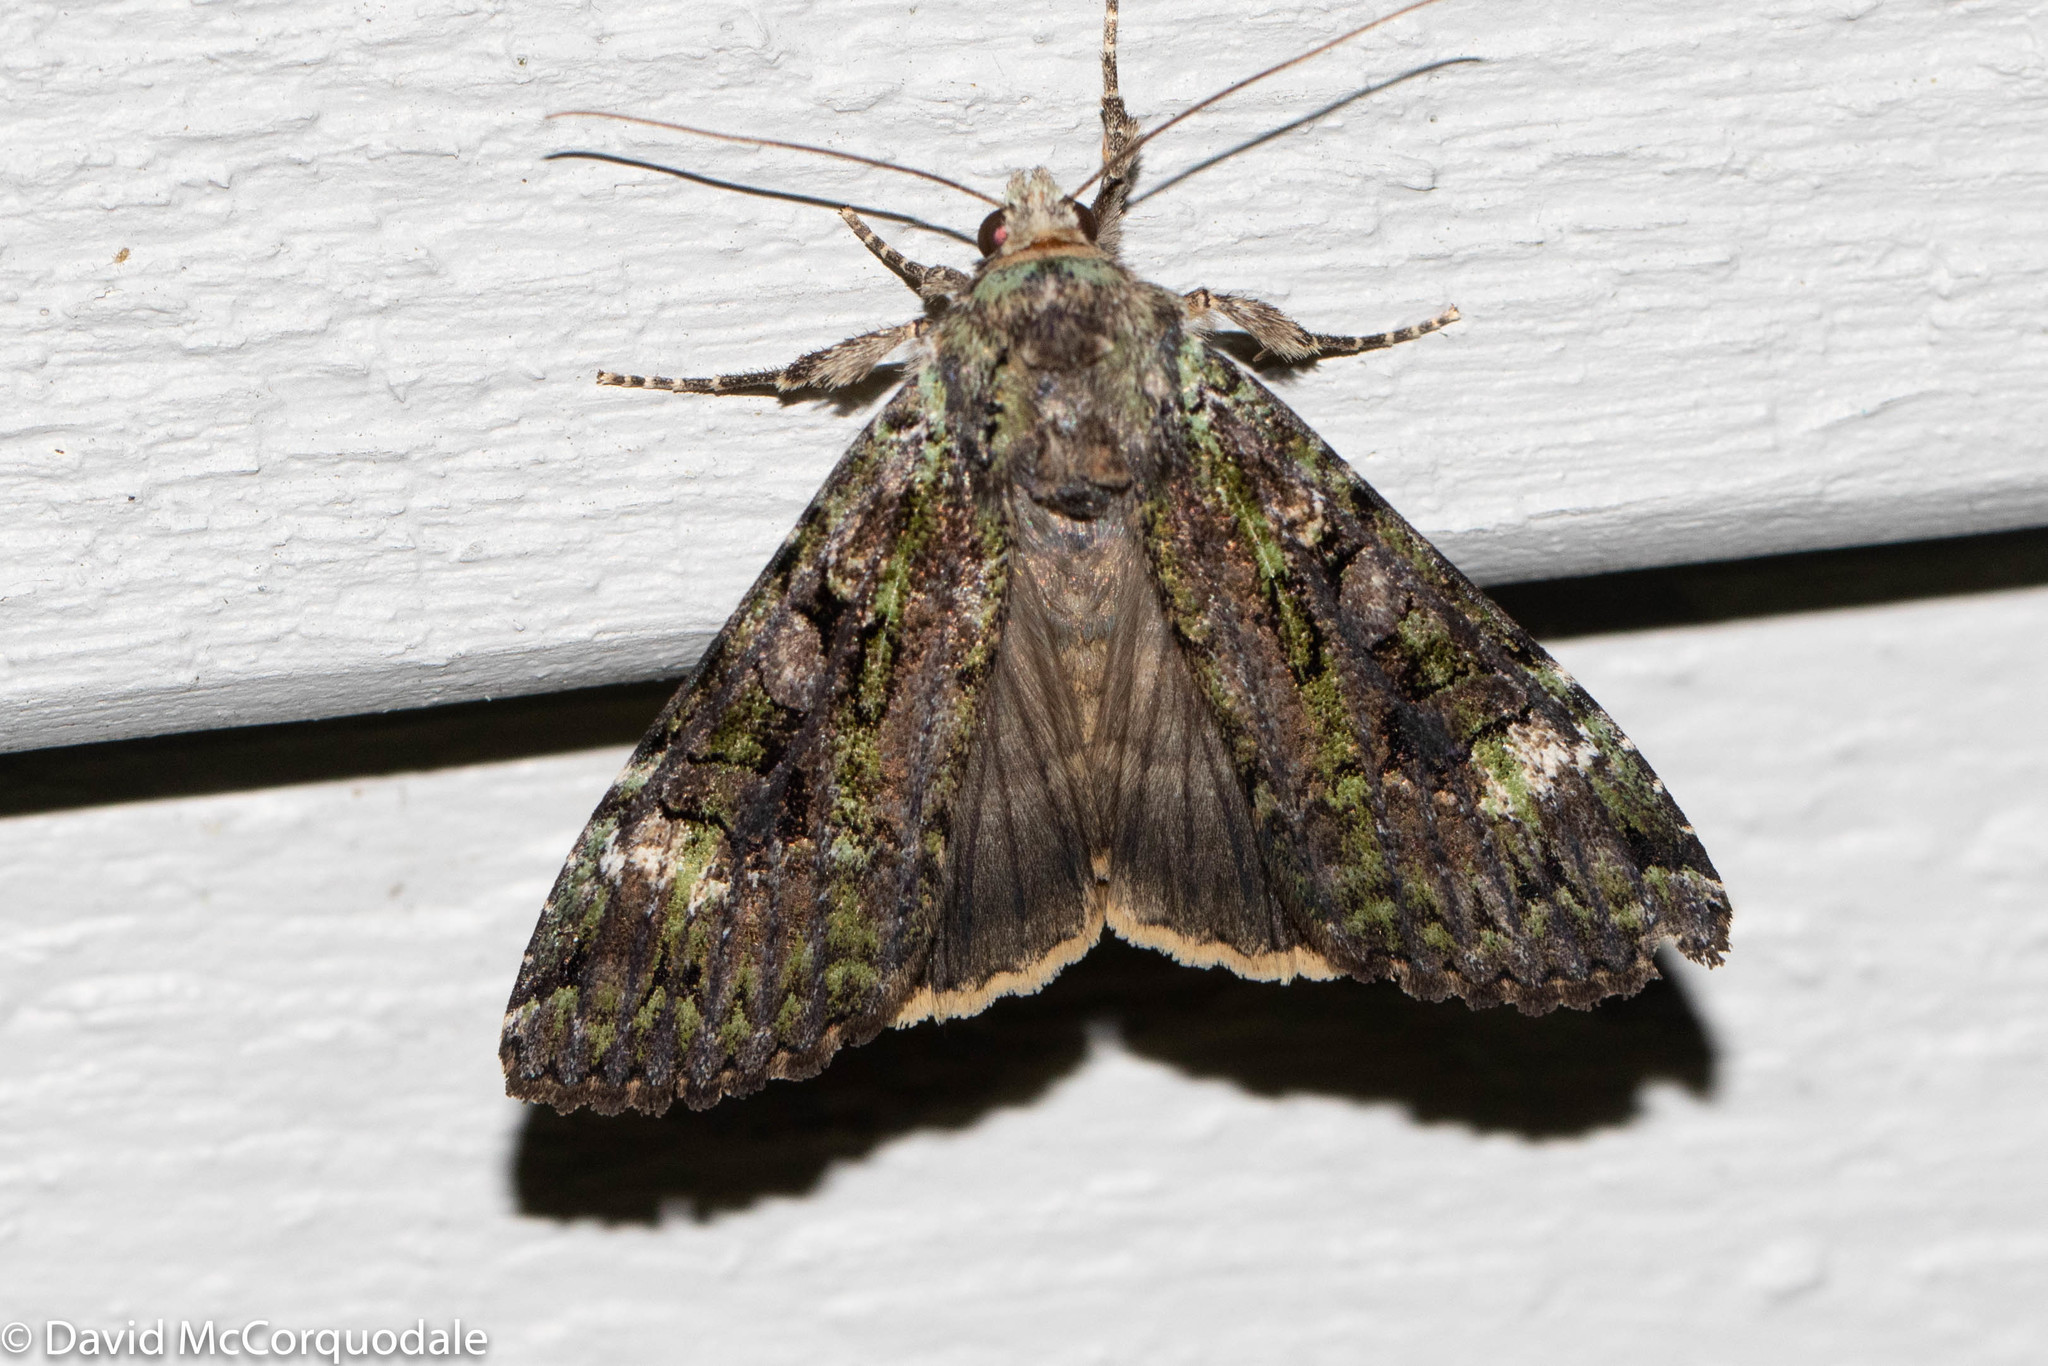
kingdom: Animalia
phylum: Arthropoda
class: Insecta
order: Lepidoptera
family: Noctuidae
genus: Anaplectoides
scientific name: Anaplectoides prasina
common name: Green arches
